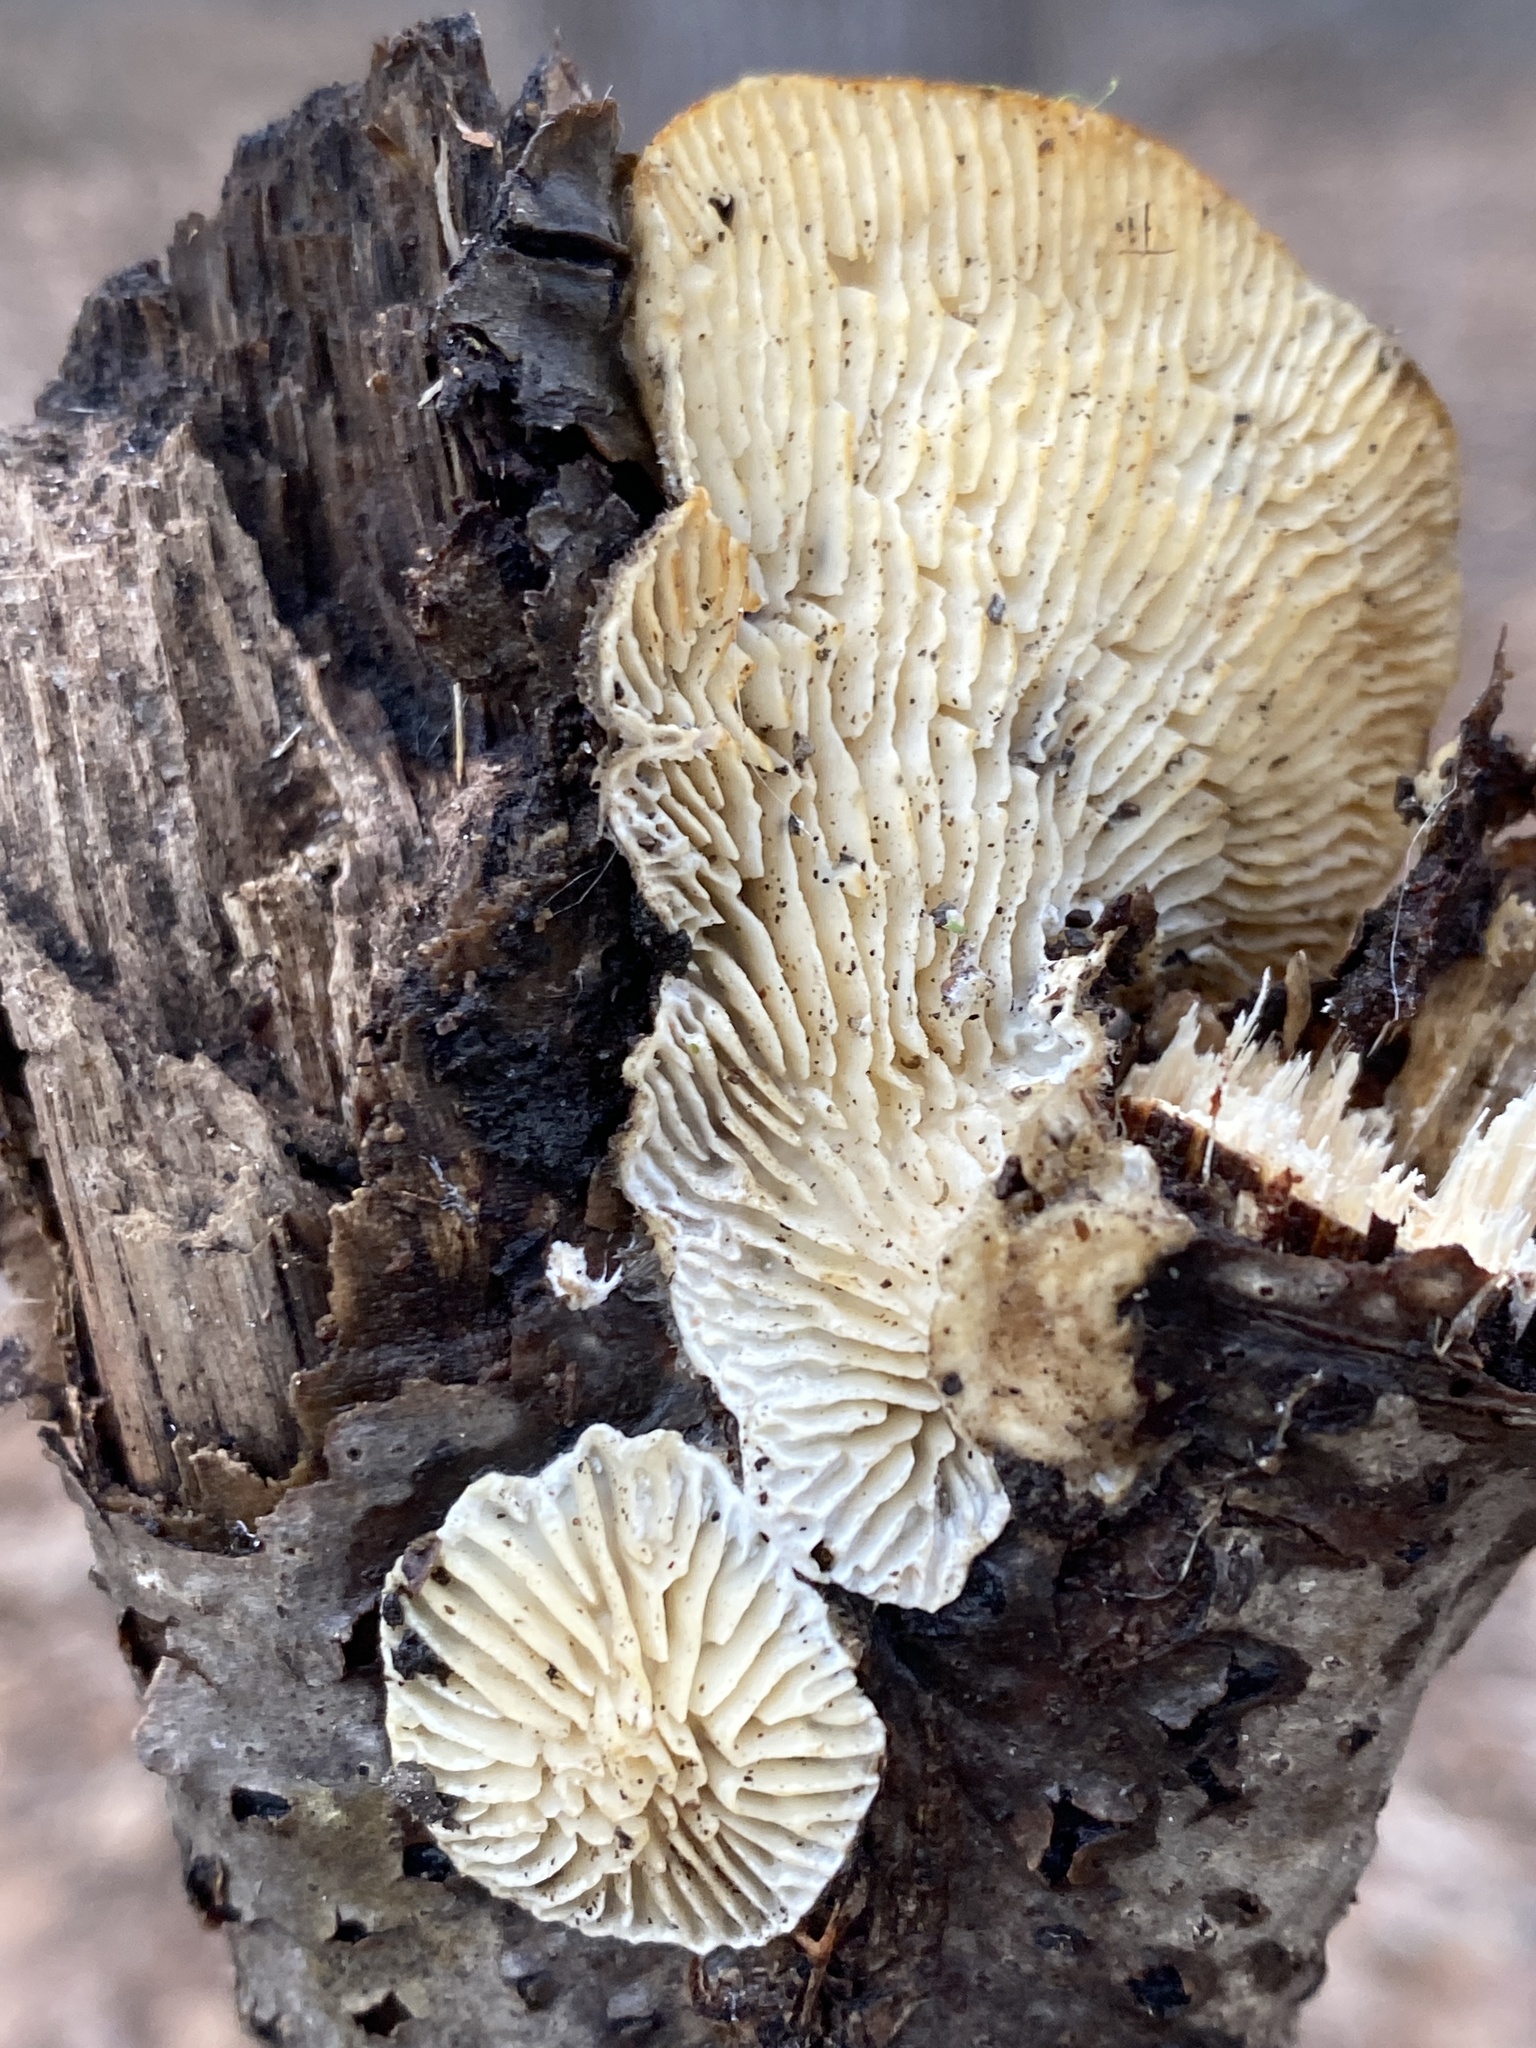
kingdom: Fungi
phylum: Basidiomycota
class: Agaricomycetes
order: Polyporales
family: Polyporaceae
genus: Lenzites
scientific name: Lenzites betulinus
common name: Birch mazegill
